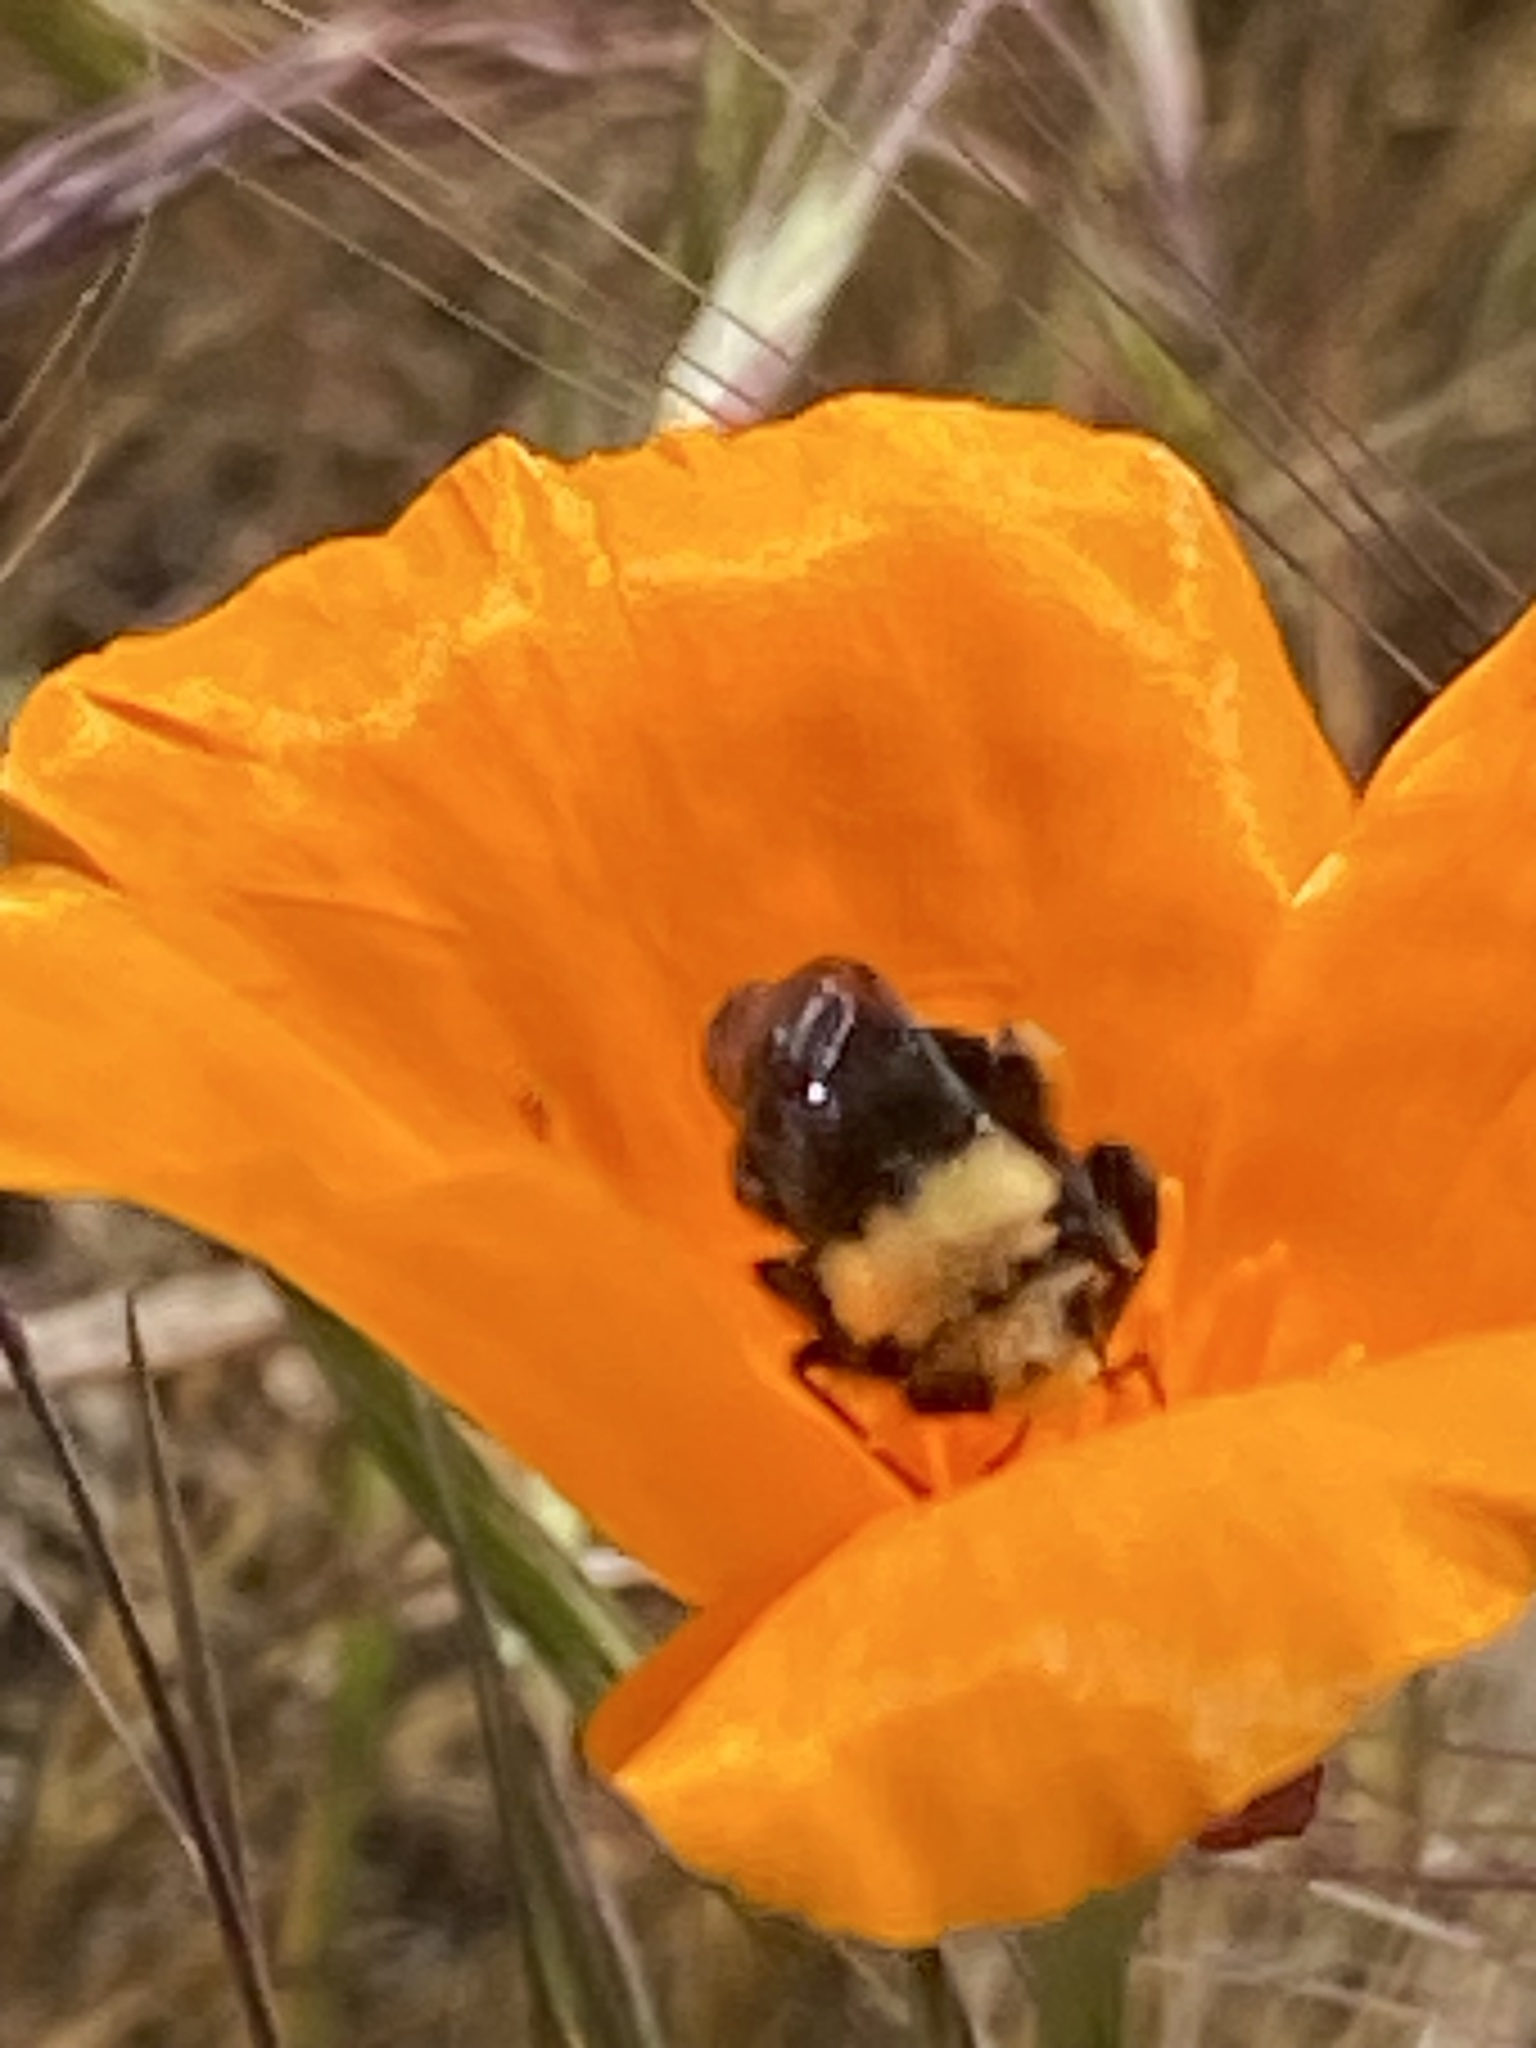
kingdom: Animalia
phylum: Arthropoda
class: Insecta
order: Hymenoptera
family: Apidae
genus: Bombus
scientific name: Bombus vosnesenskii
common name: Vosnesensky bumble bee
